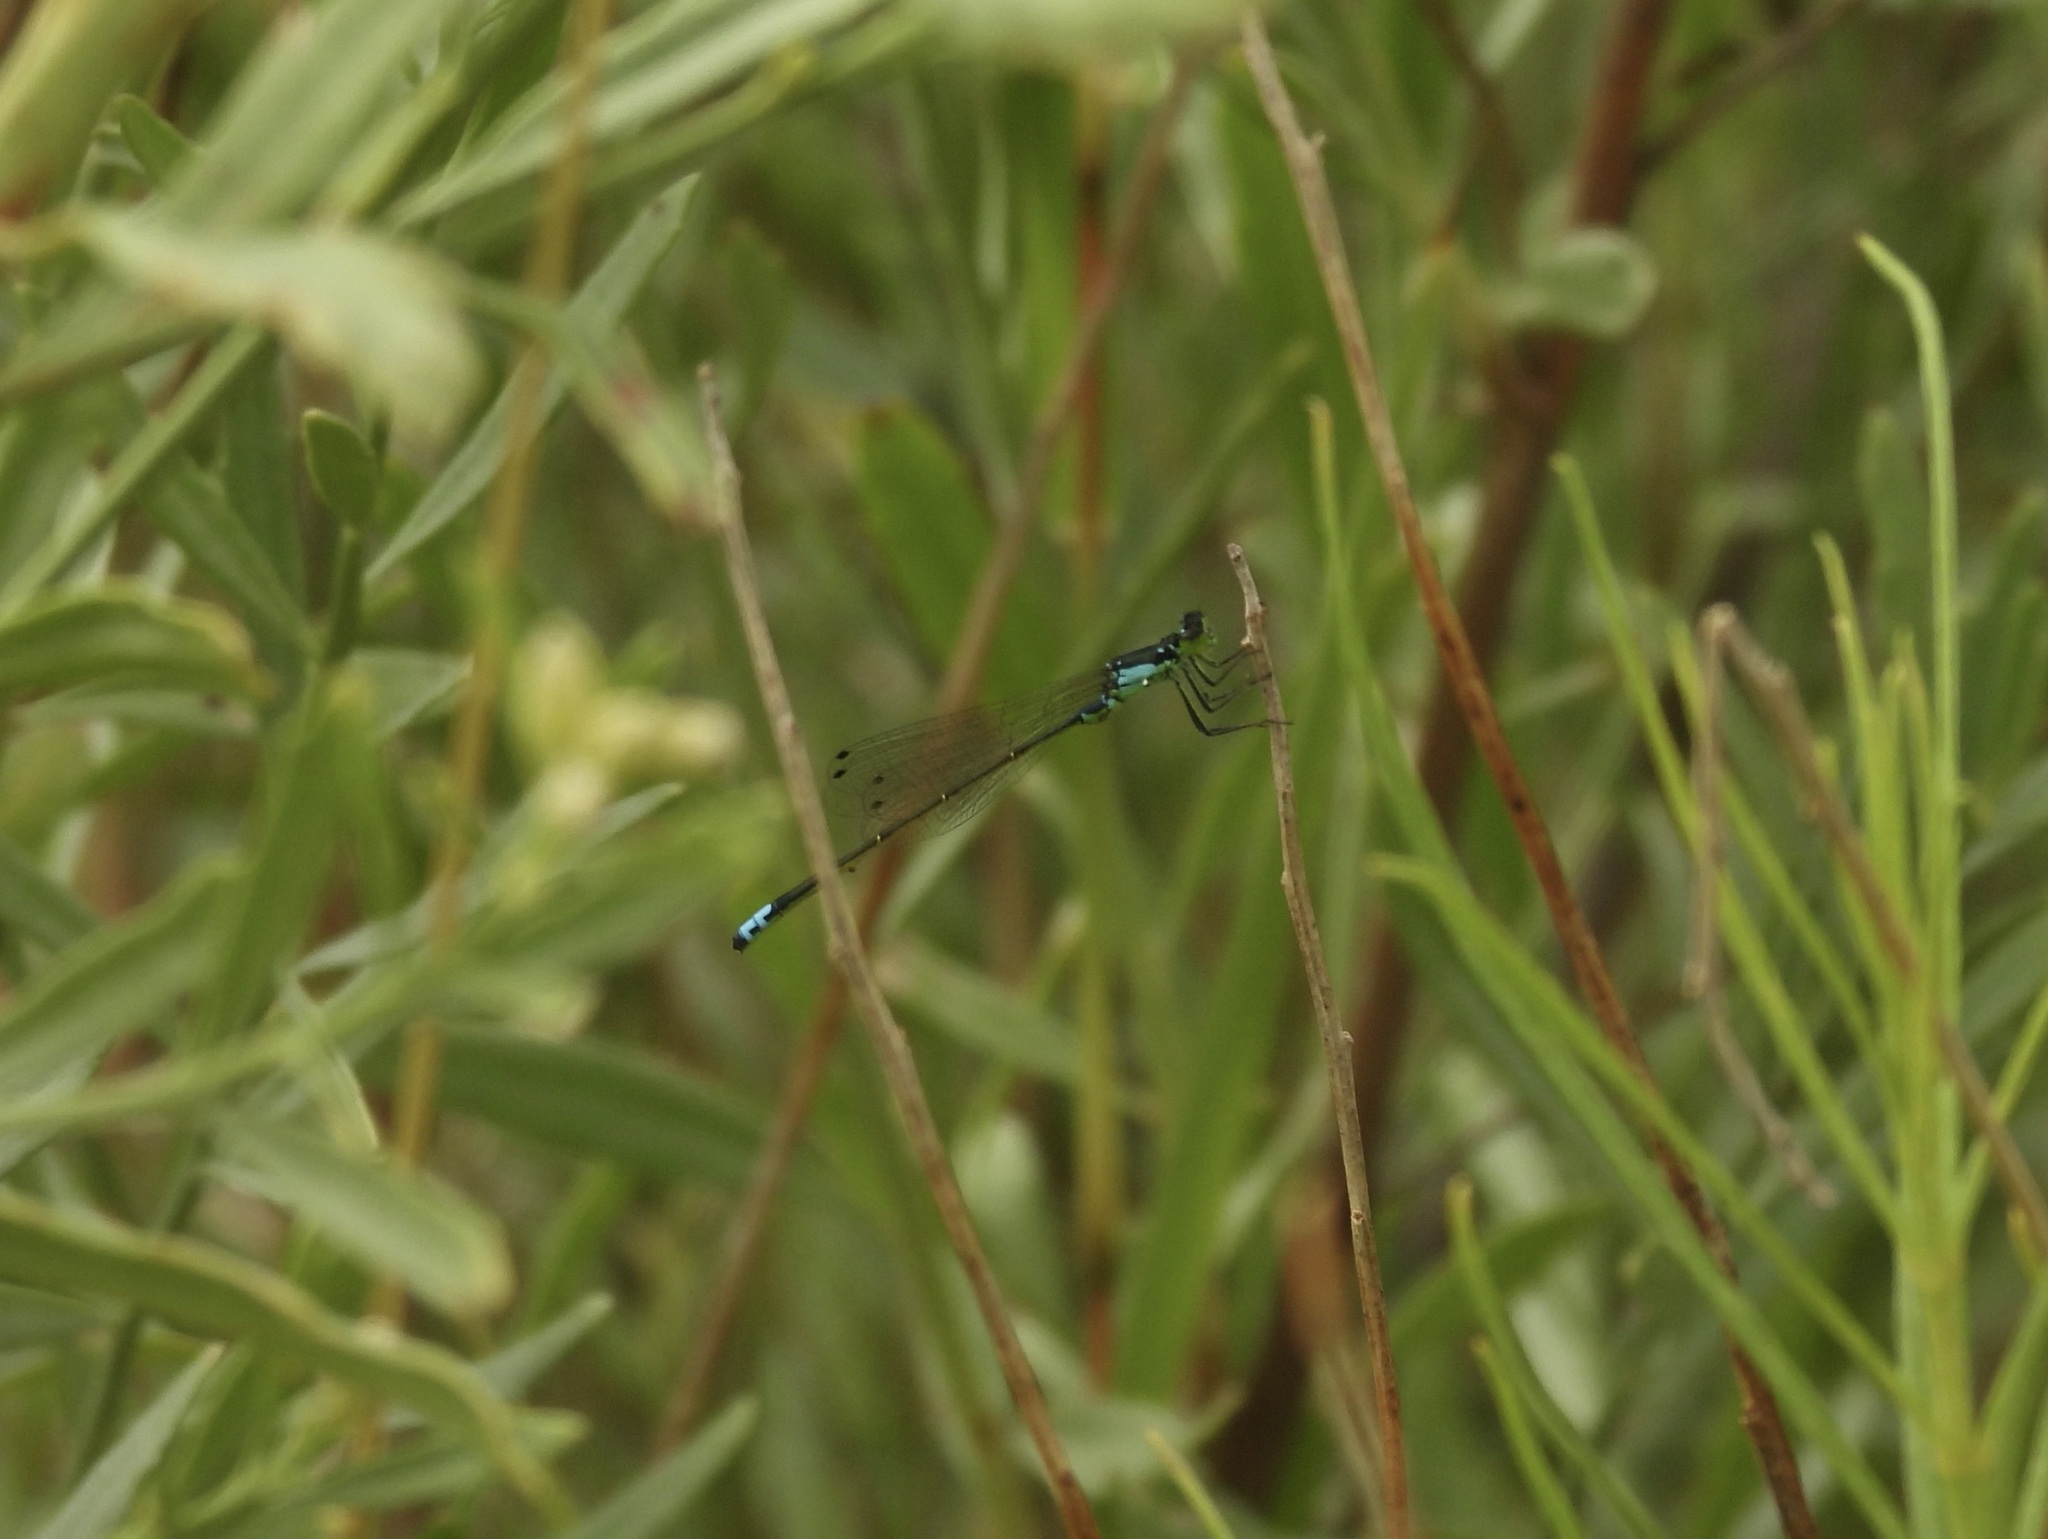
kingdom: Animalia
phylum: Arthropoda
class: Insecta
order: Odonata
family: Coenagrionidae
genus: Ischnura
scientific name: Ischnura damula
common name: Plains forktail
